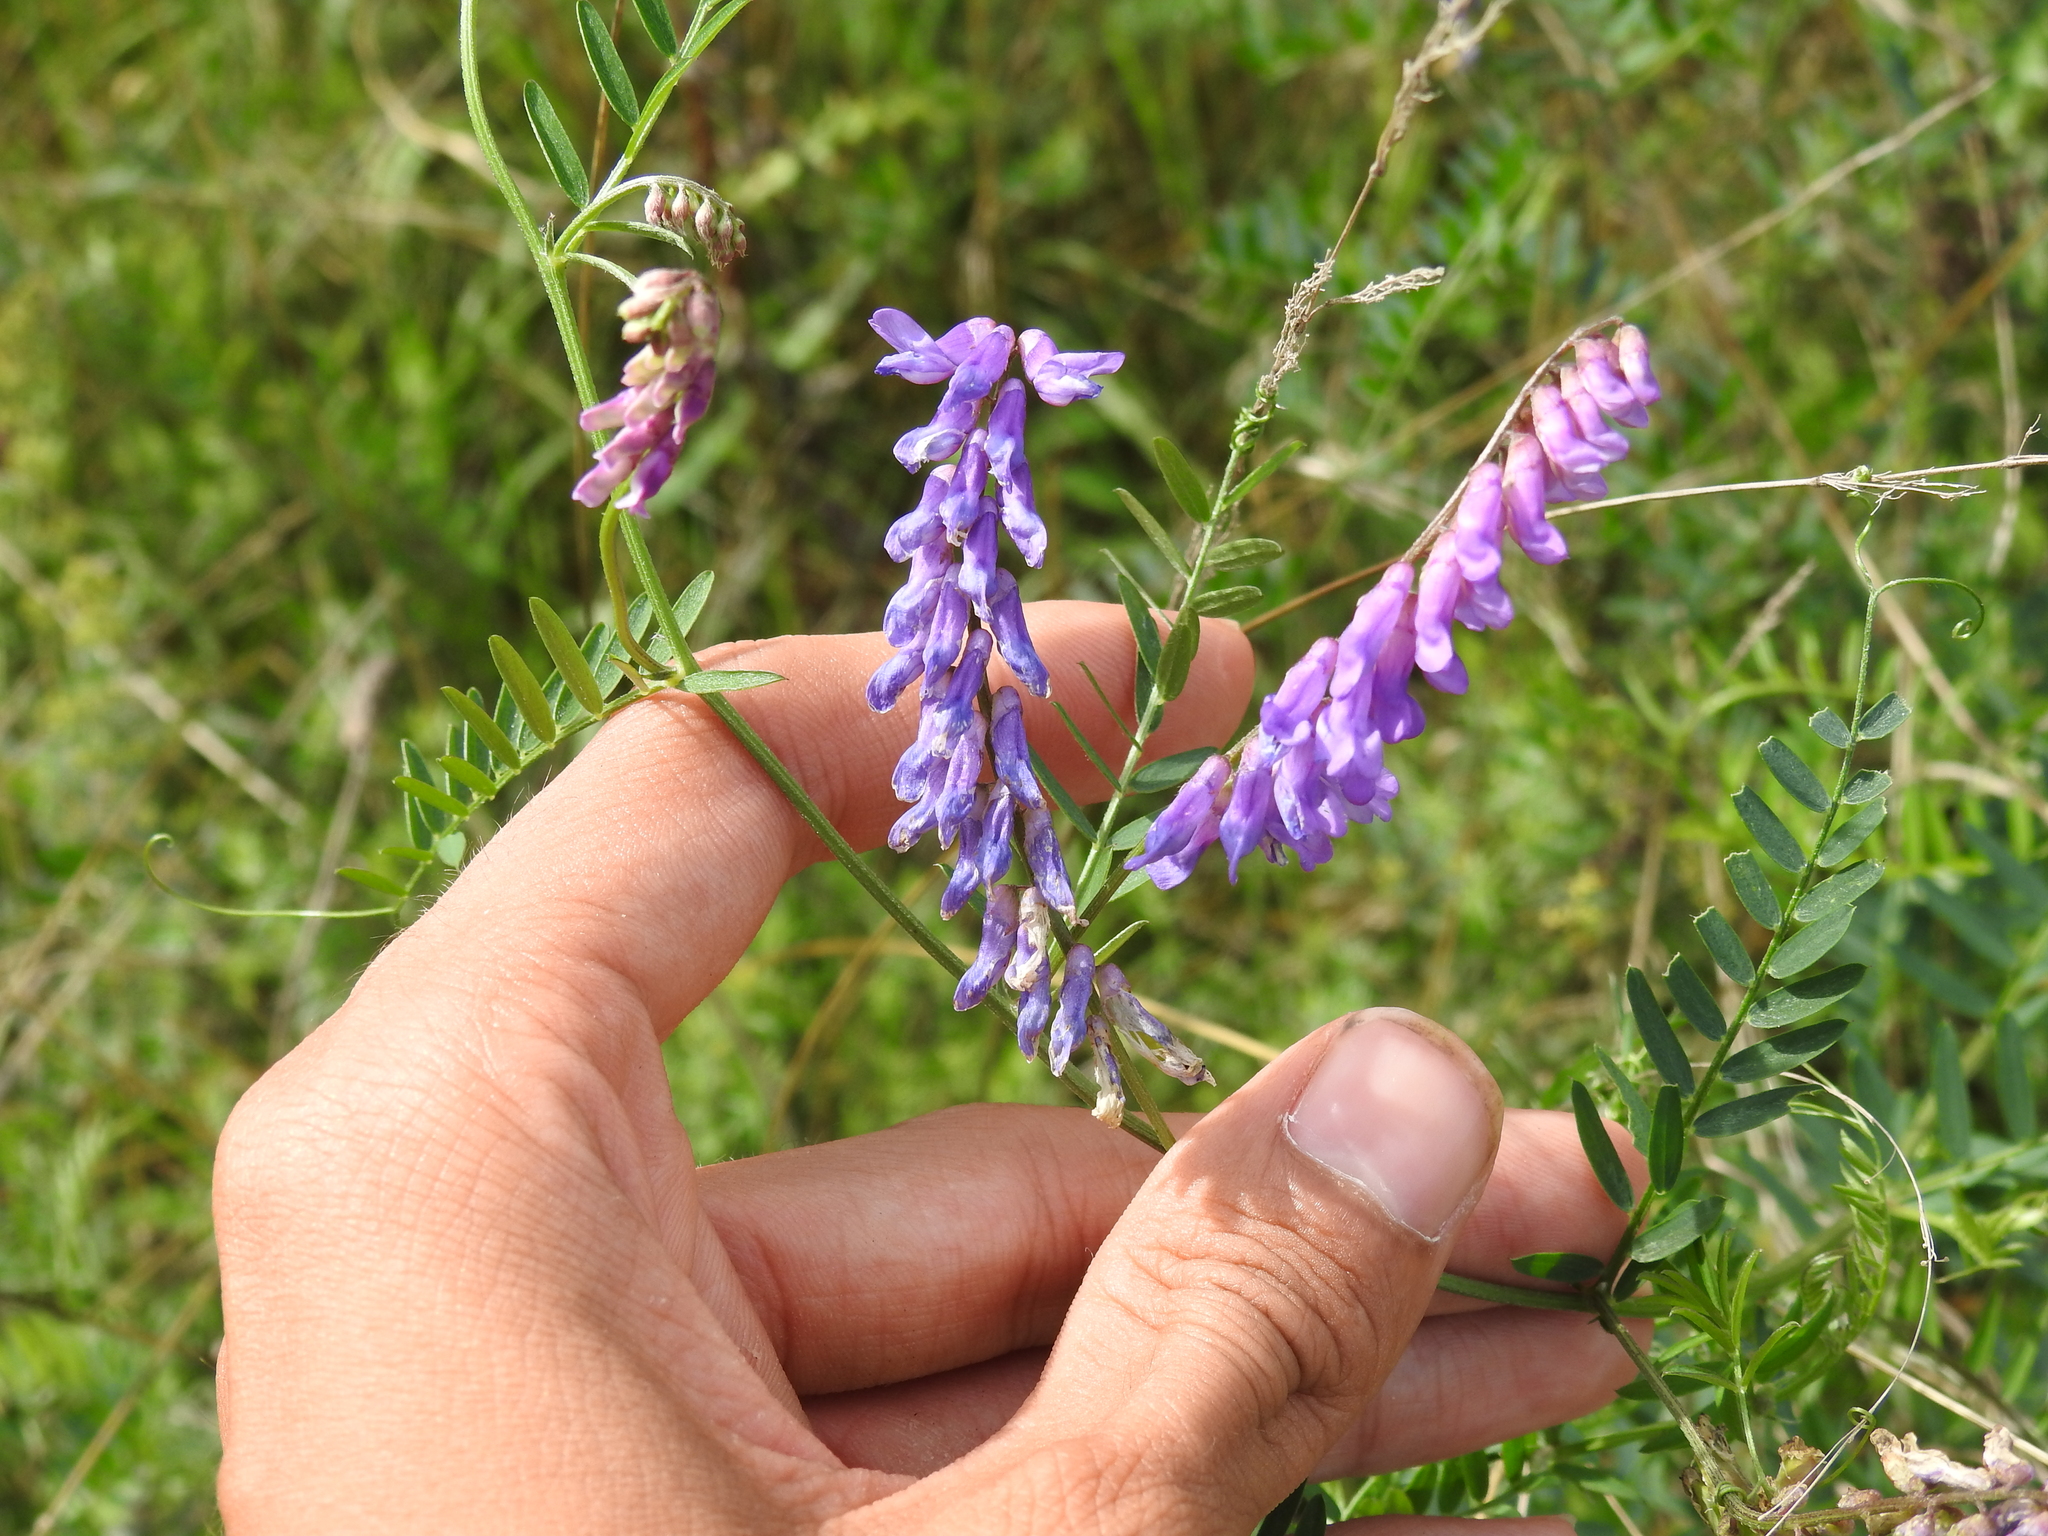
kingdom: Plantae
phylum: Tracheophyta
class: Magnoliopsida
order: Fabales
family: Fabaceae
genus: Vicia
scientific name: Vicia cracca
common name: Bird vetch
